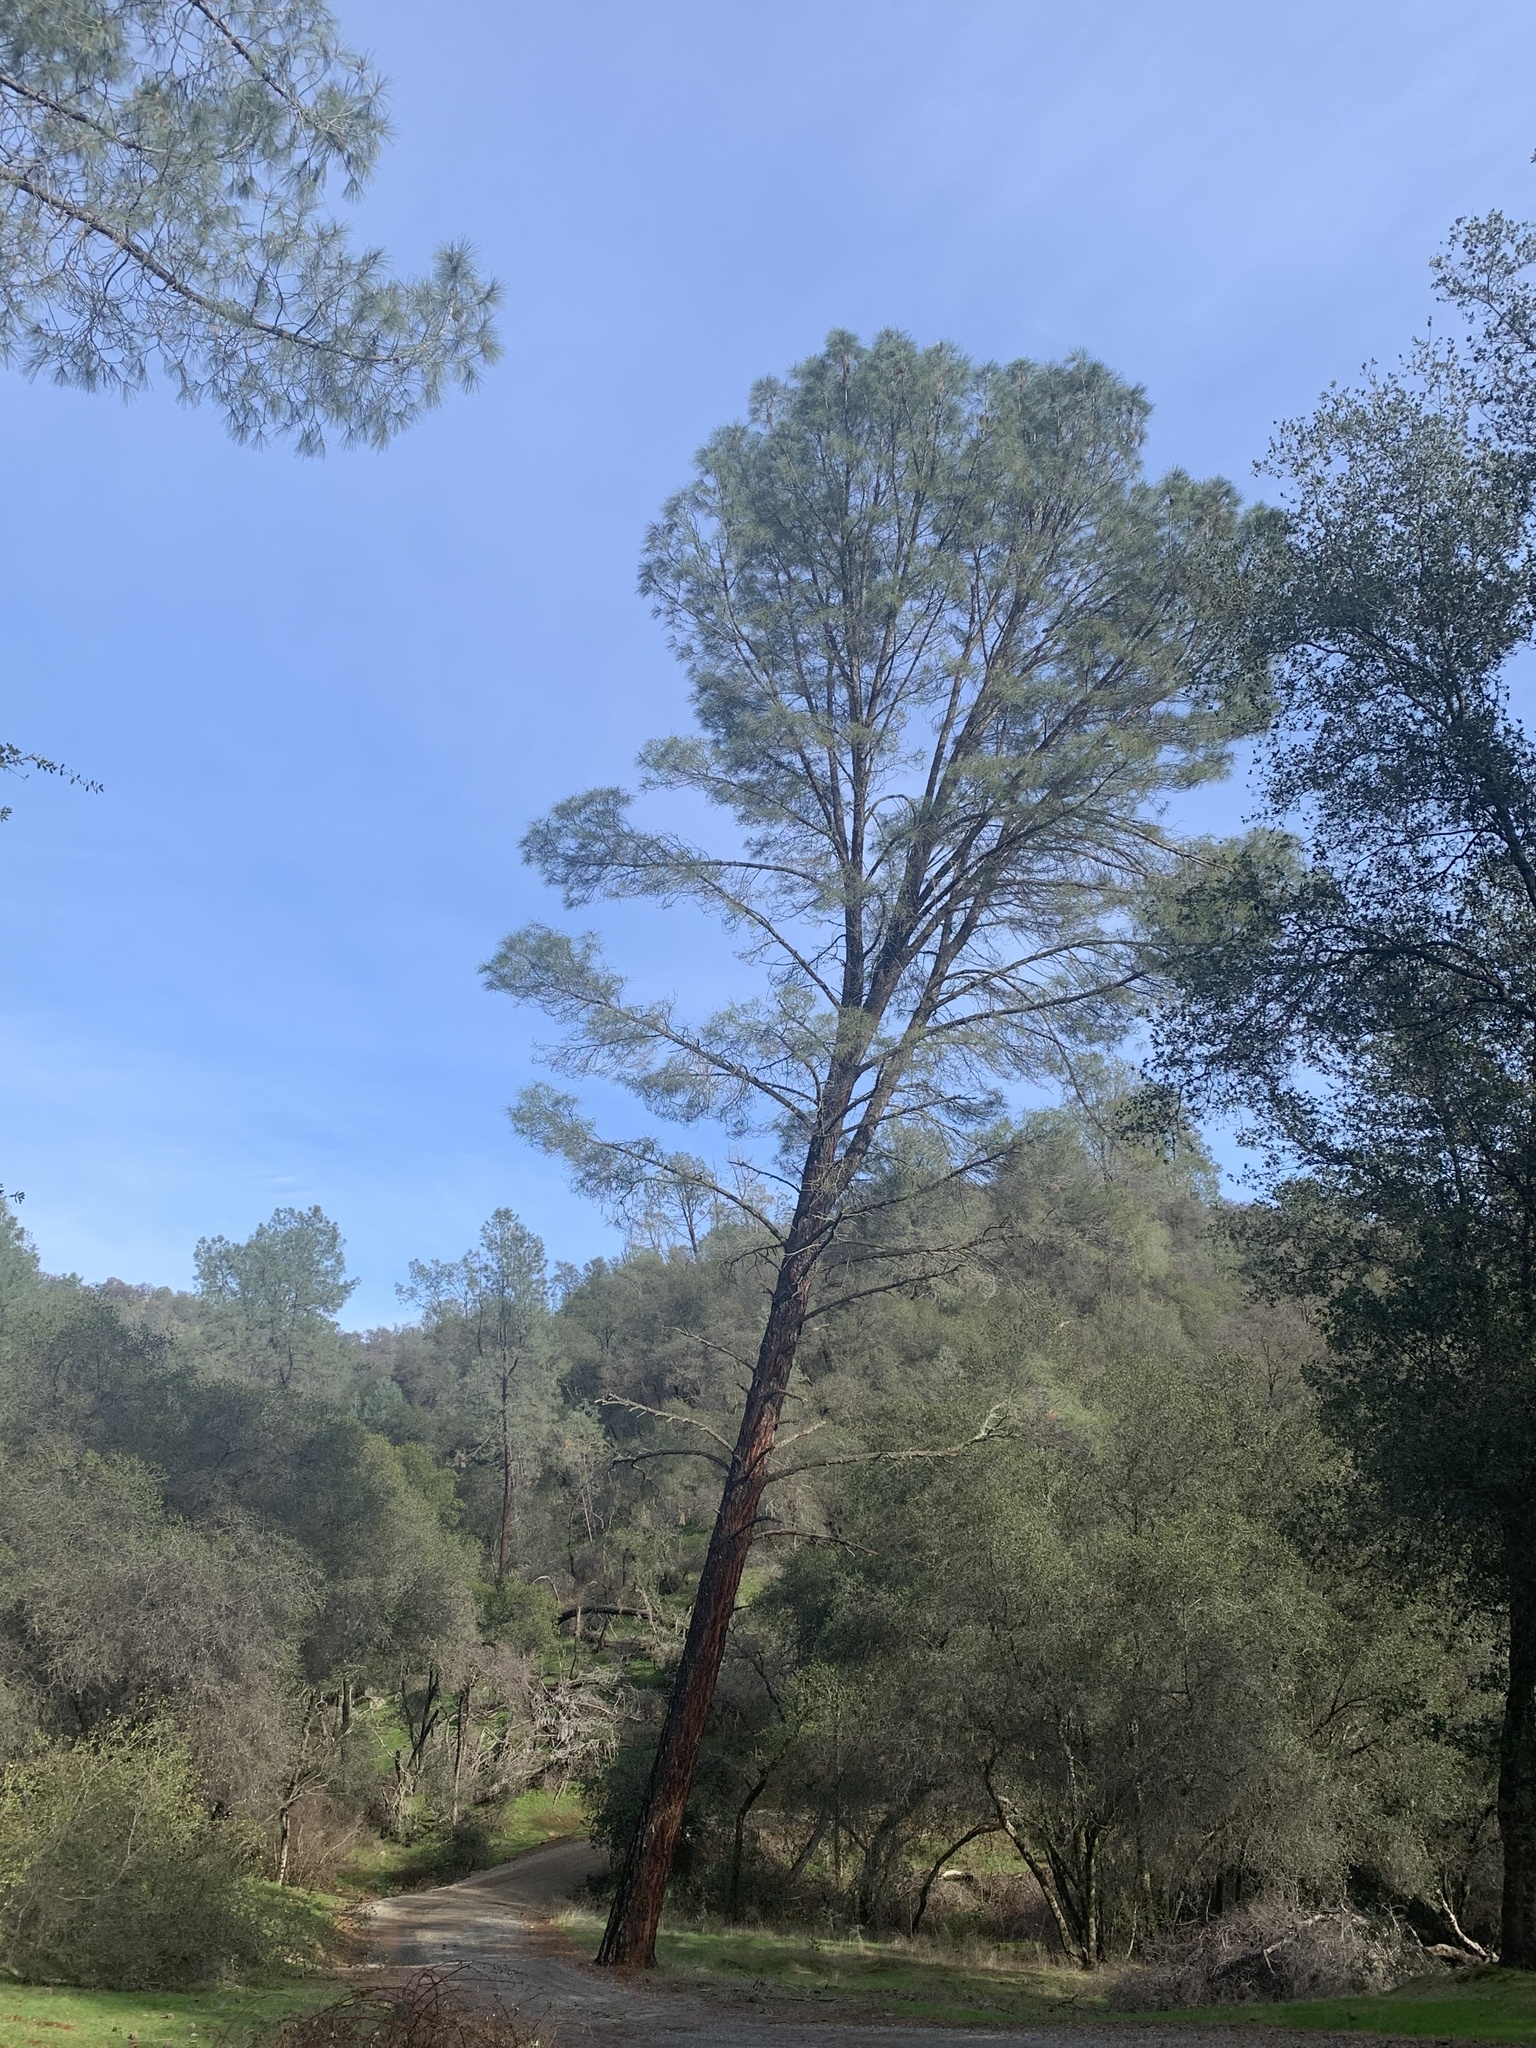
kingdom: Plantae
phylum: Tracheophyta
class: Pinopsida
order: Pinales
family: Pinaceae
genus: Pinus
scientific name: Pinus sabiniana
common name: Bull pine
